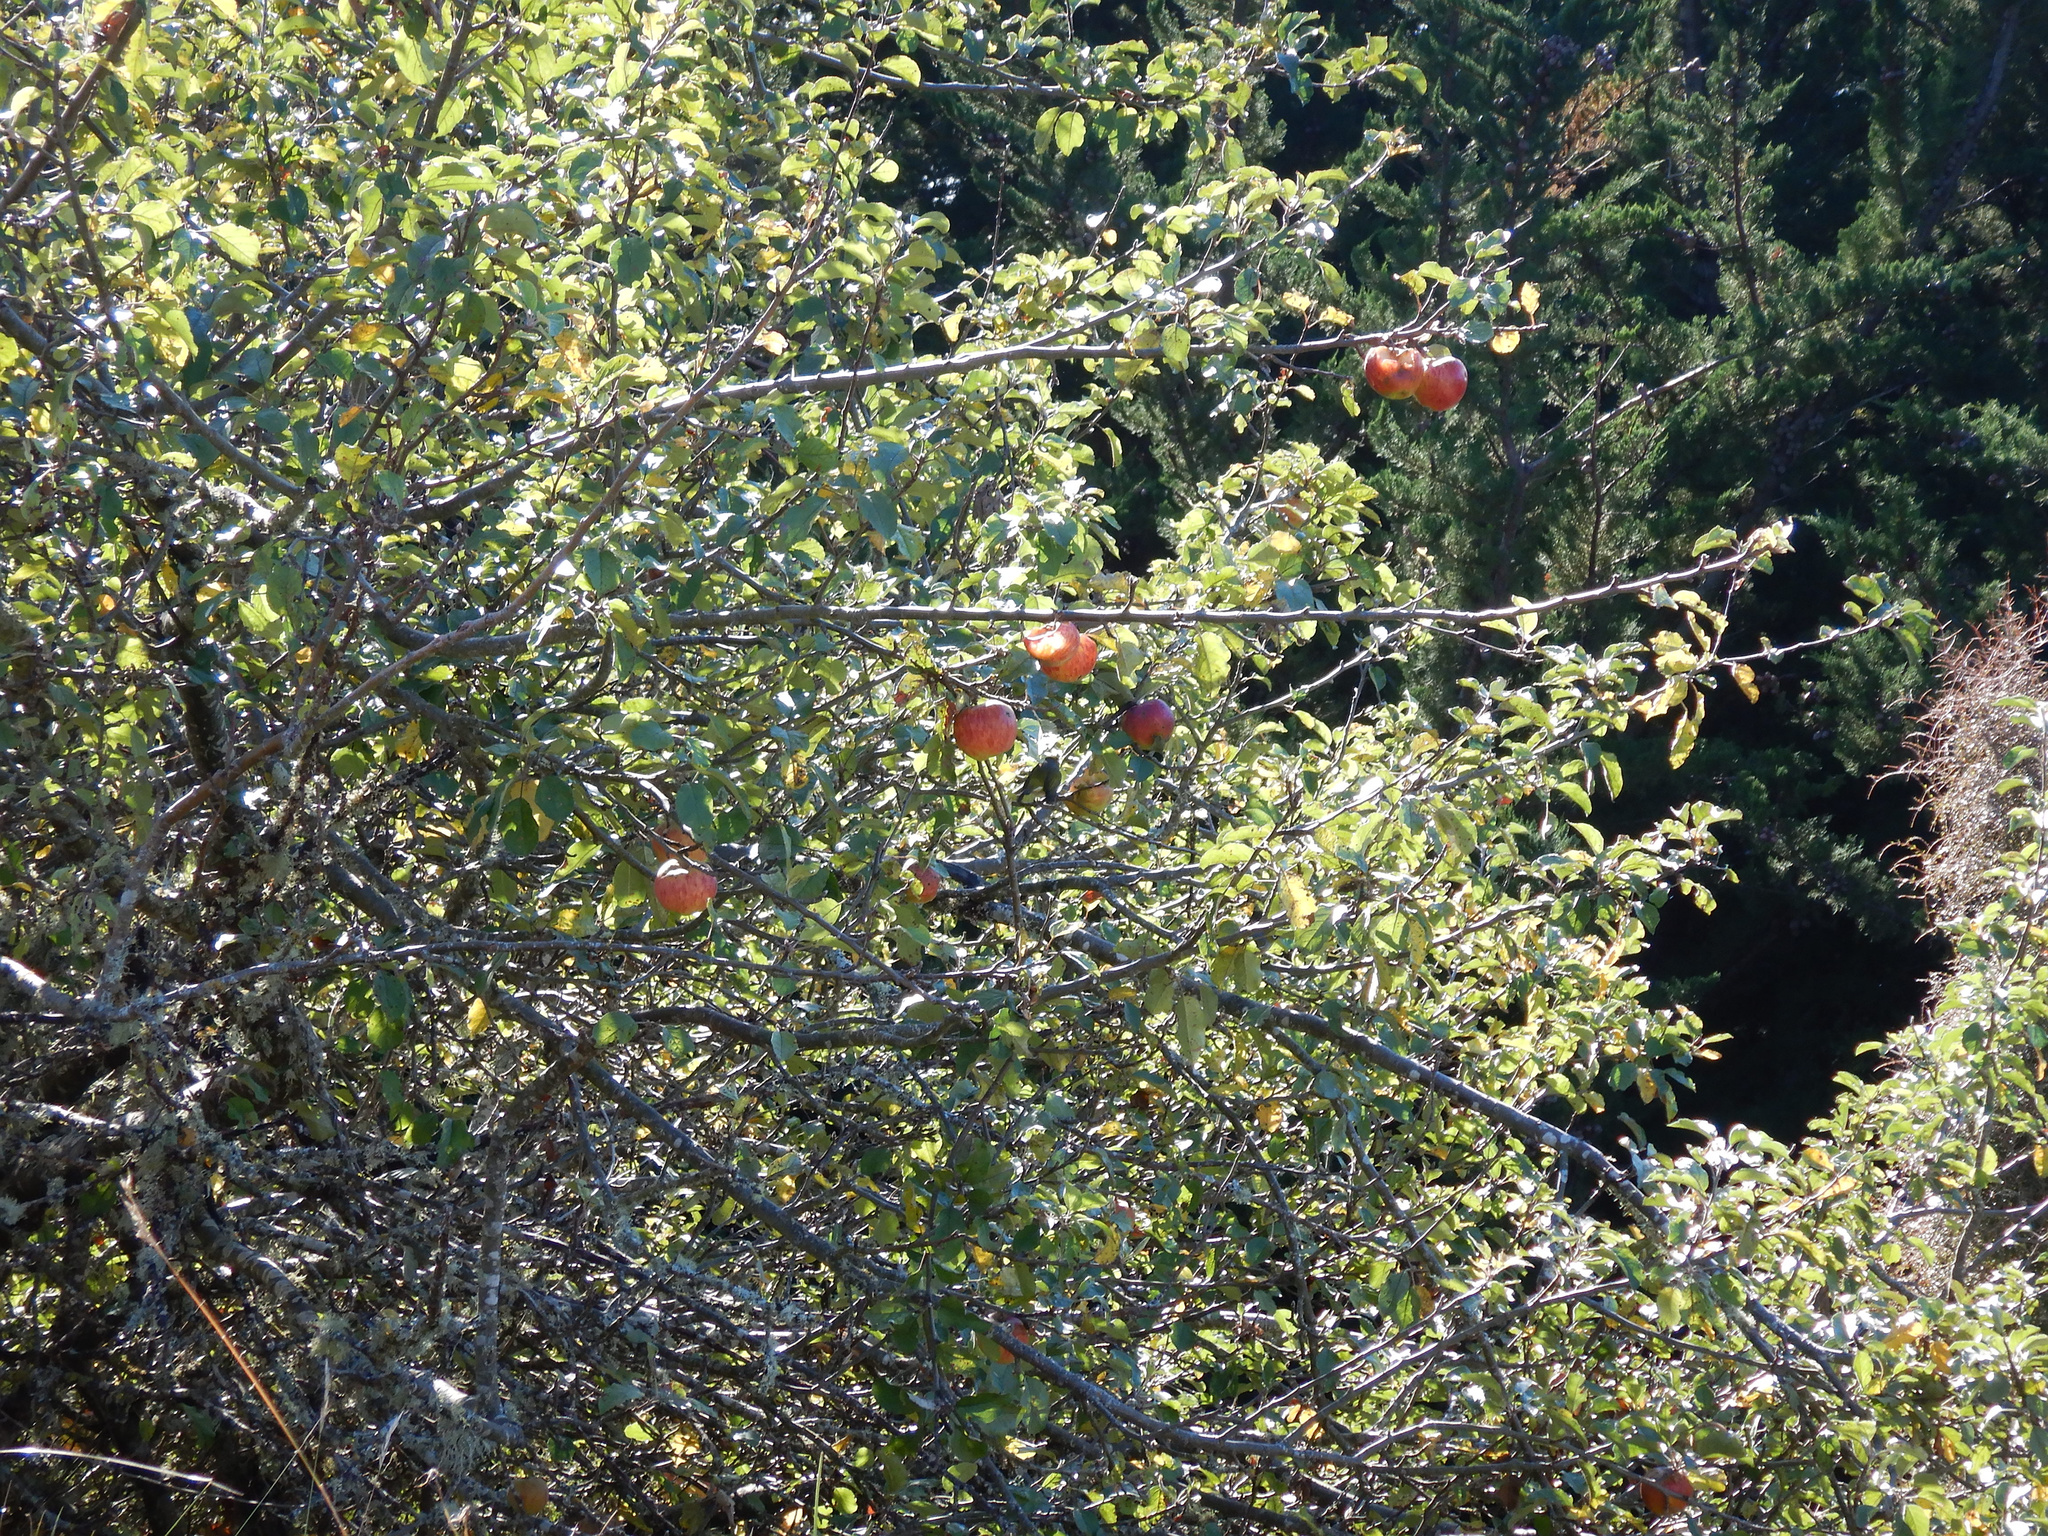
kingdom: Plantae
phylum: Tracheophyta
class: Magnoliopsida
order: Rosales
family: Rosaceae
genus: Malus
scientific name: Malus domestica
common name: Apple
